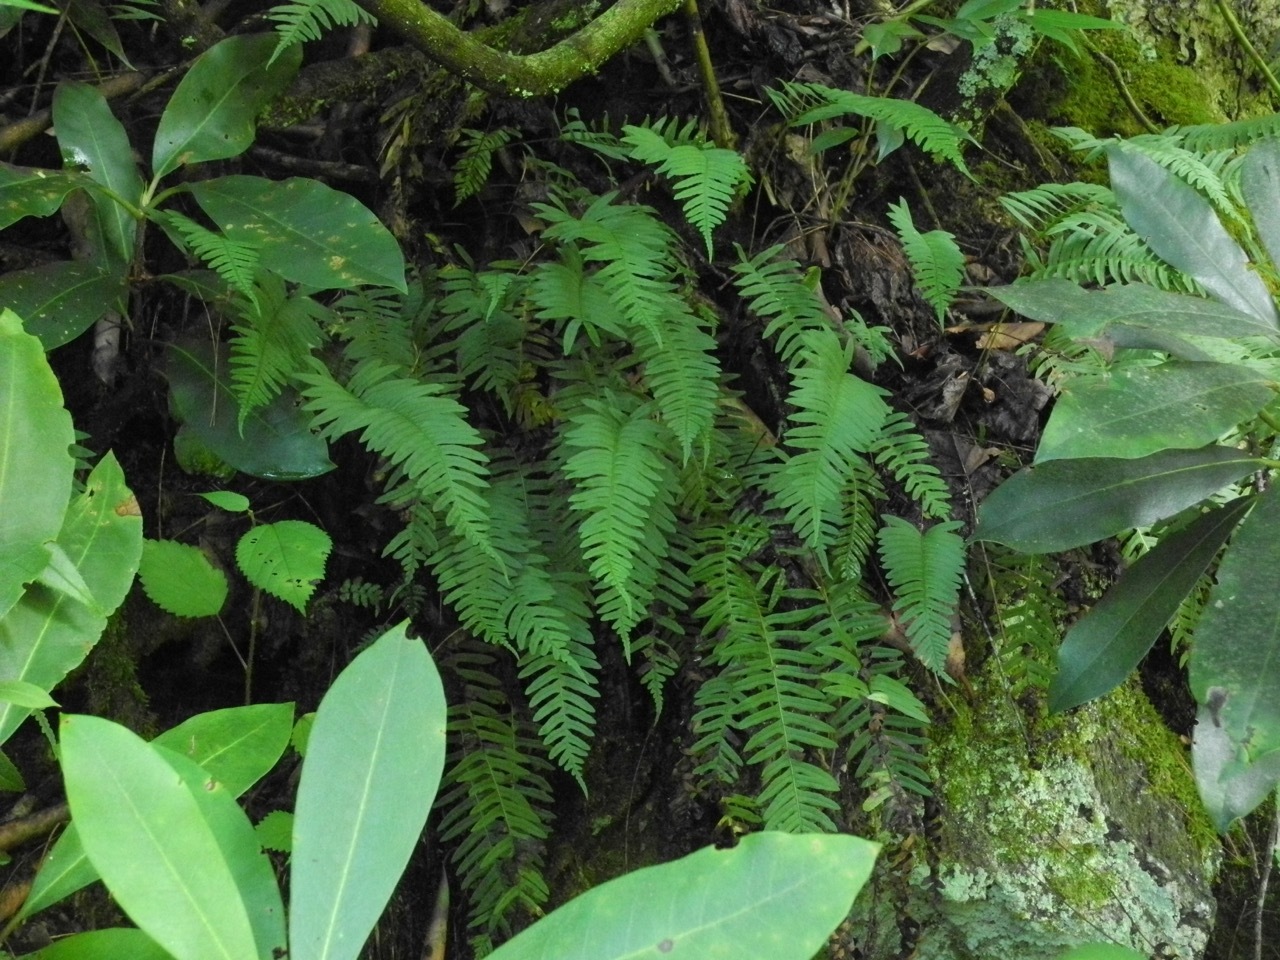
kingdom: Plantae
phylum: Tracheophyta
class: Polypodiopsida
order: Polypodiales
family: Polypodiaceae
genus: Polypodium
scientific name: Polypodium appalachianum
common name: Appalachian polypody
